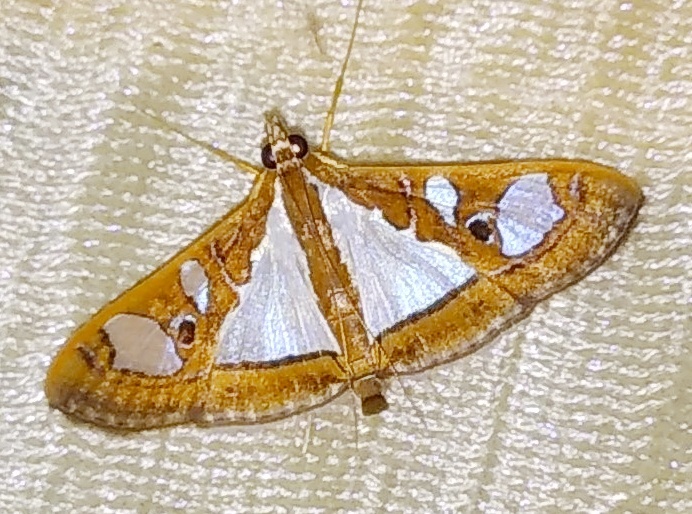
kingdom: Animalia
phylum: Arthropoda
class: Insecta
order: Lepidoptera
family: Crambidae
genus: Glyphodes
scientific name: Glyphodes bivitralis
